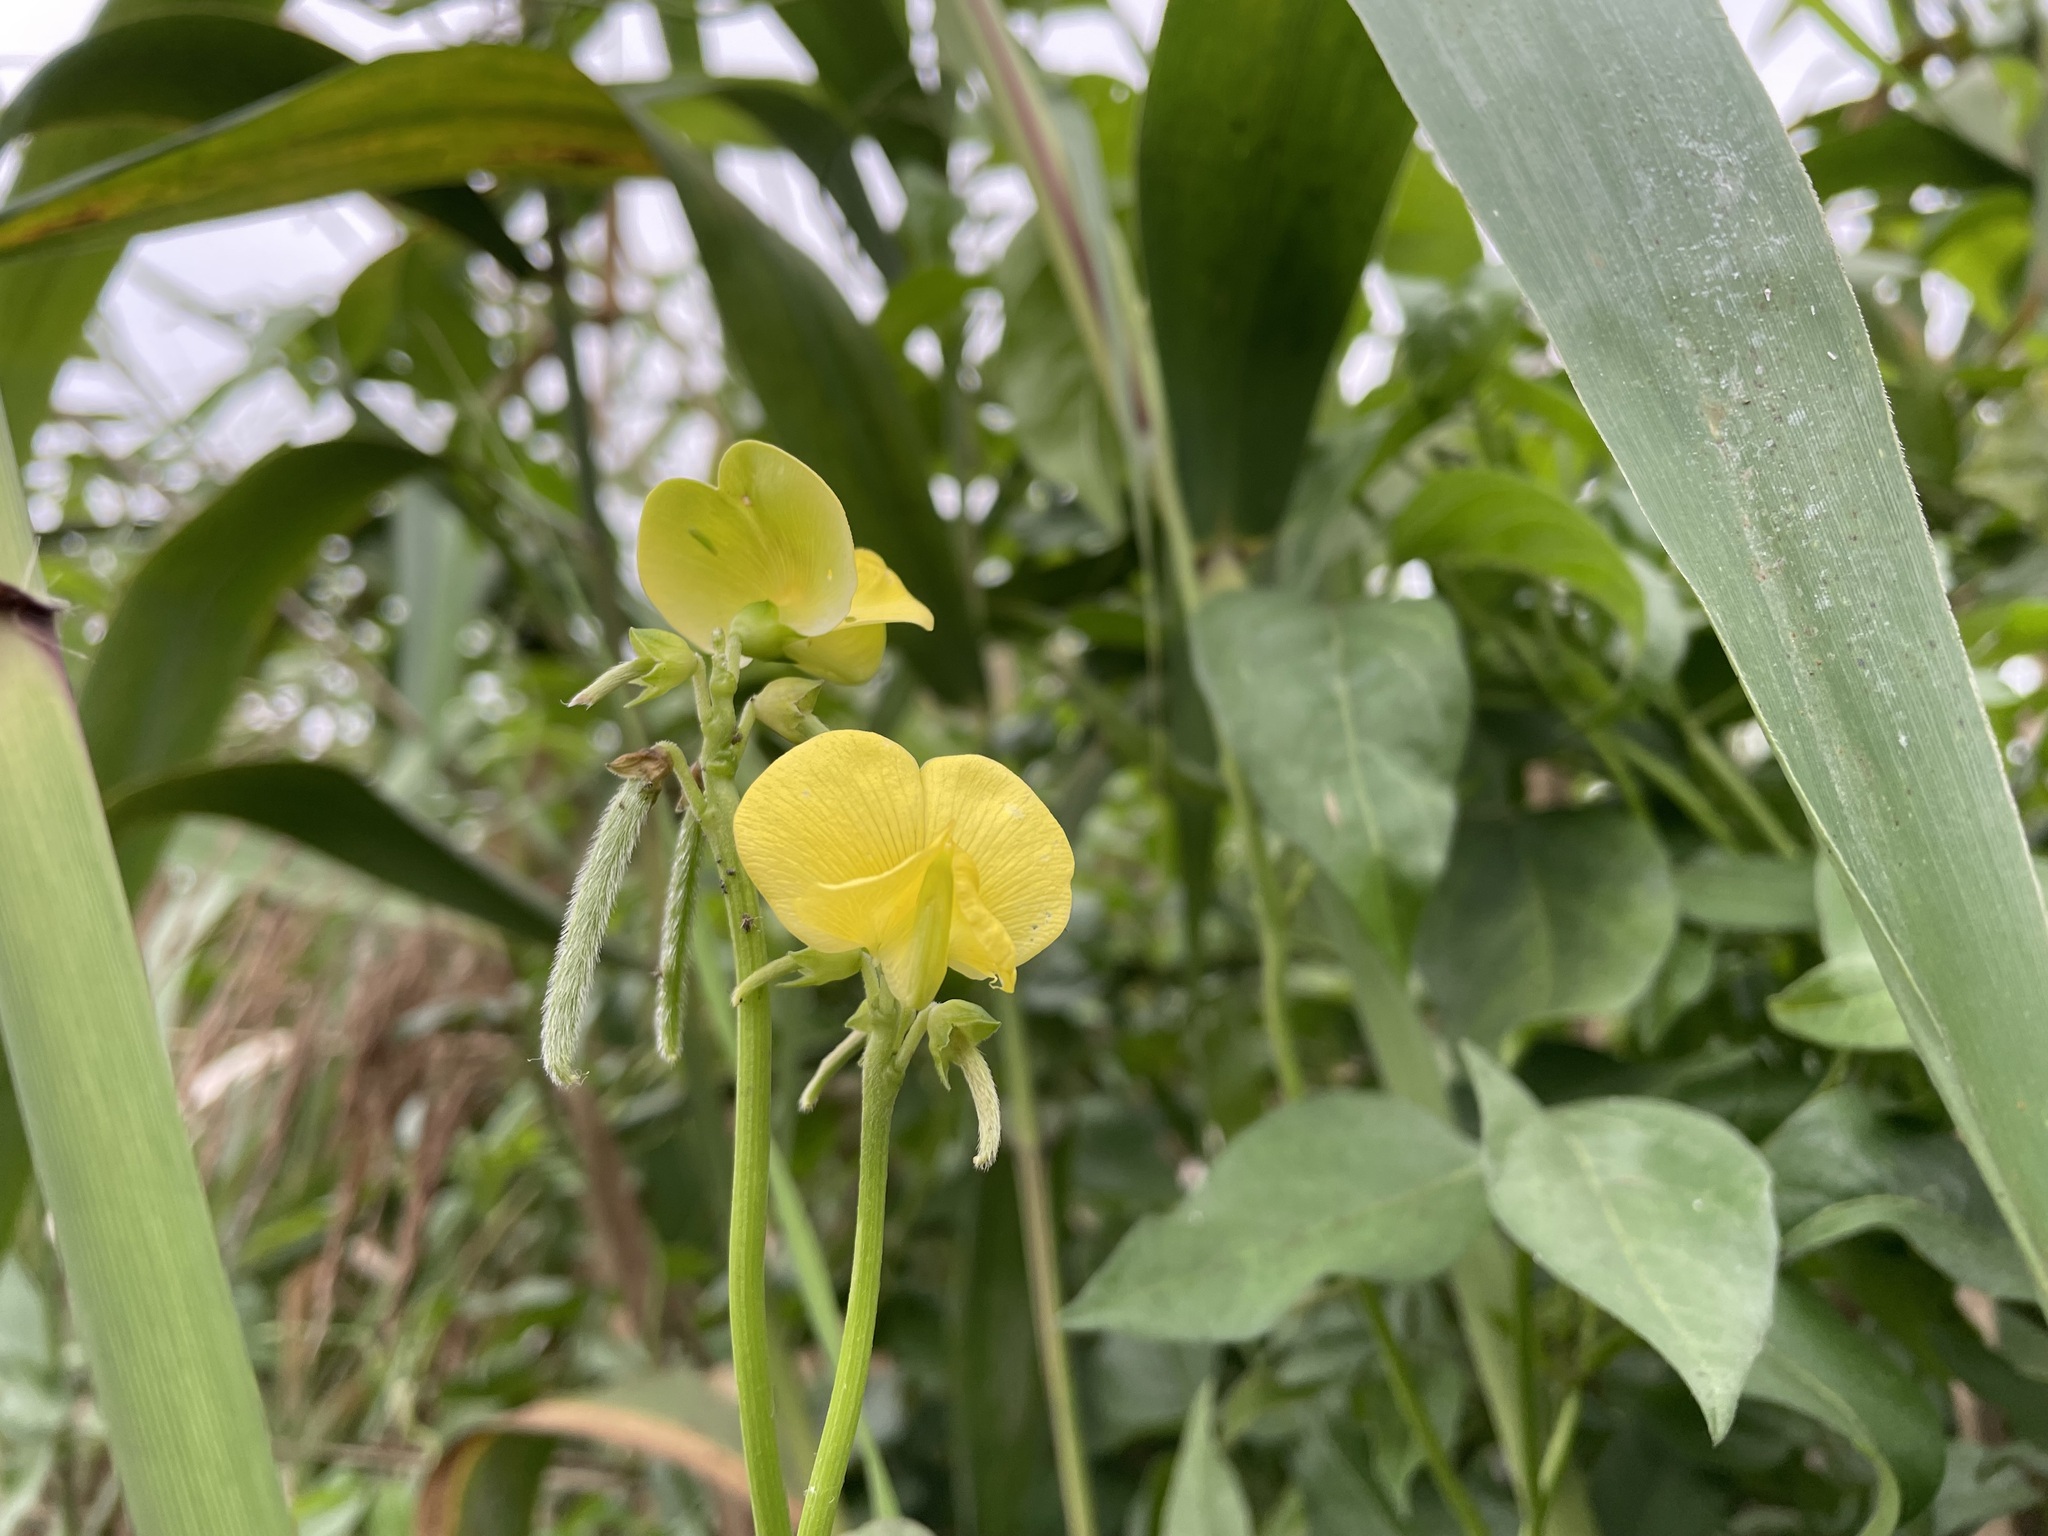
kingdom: Plantae
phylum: Tracheophyta
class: Magnoliopsida
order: Fabales
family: Fabaceae
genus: Vigna
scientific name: Vigna luteola
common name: Hairypod cowpea
